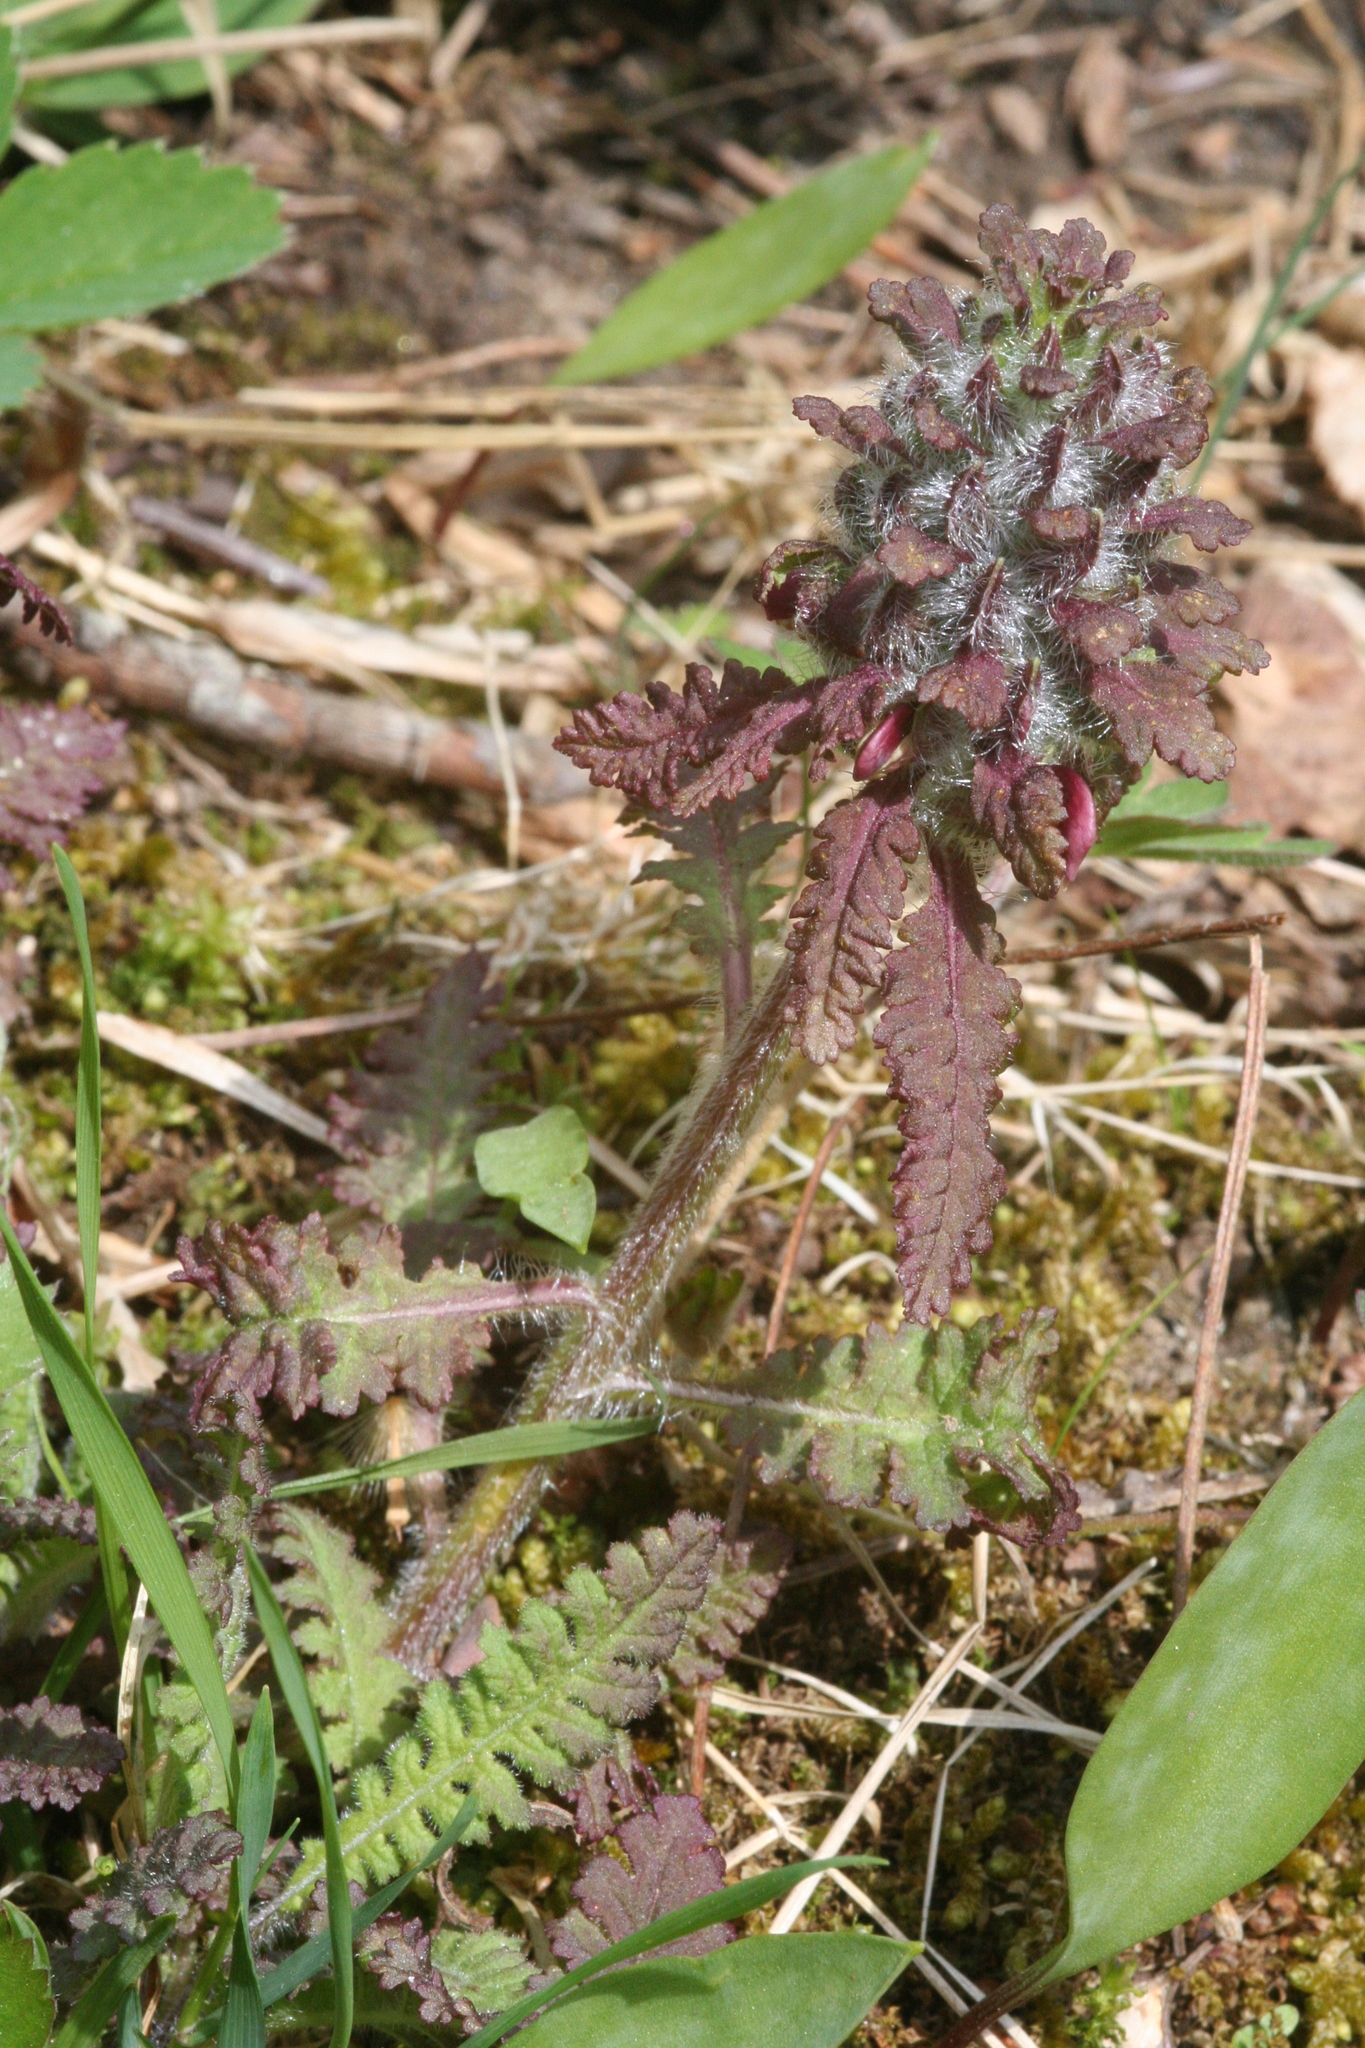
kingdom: Plantae
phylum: Tracheophyta
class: Magnoliopsida
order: Lamiales
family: Orobanchaceae
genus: Pedicularis
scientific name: Pedicularis canadensis
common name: Early lousewort
